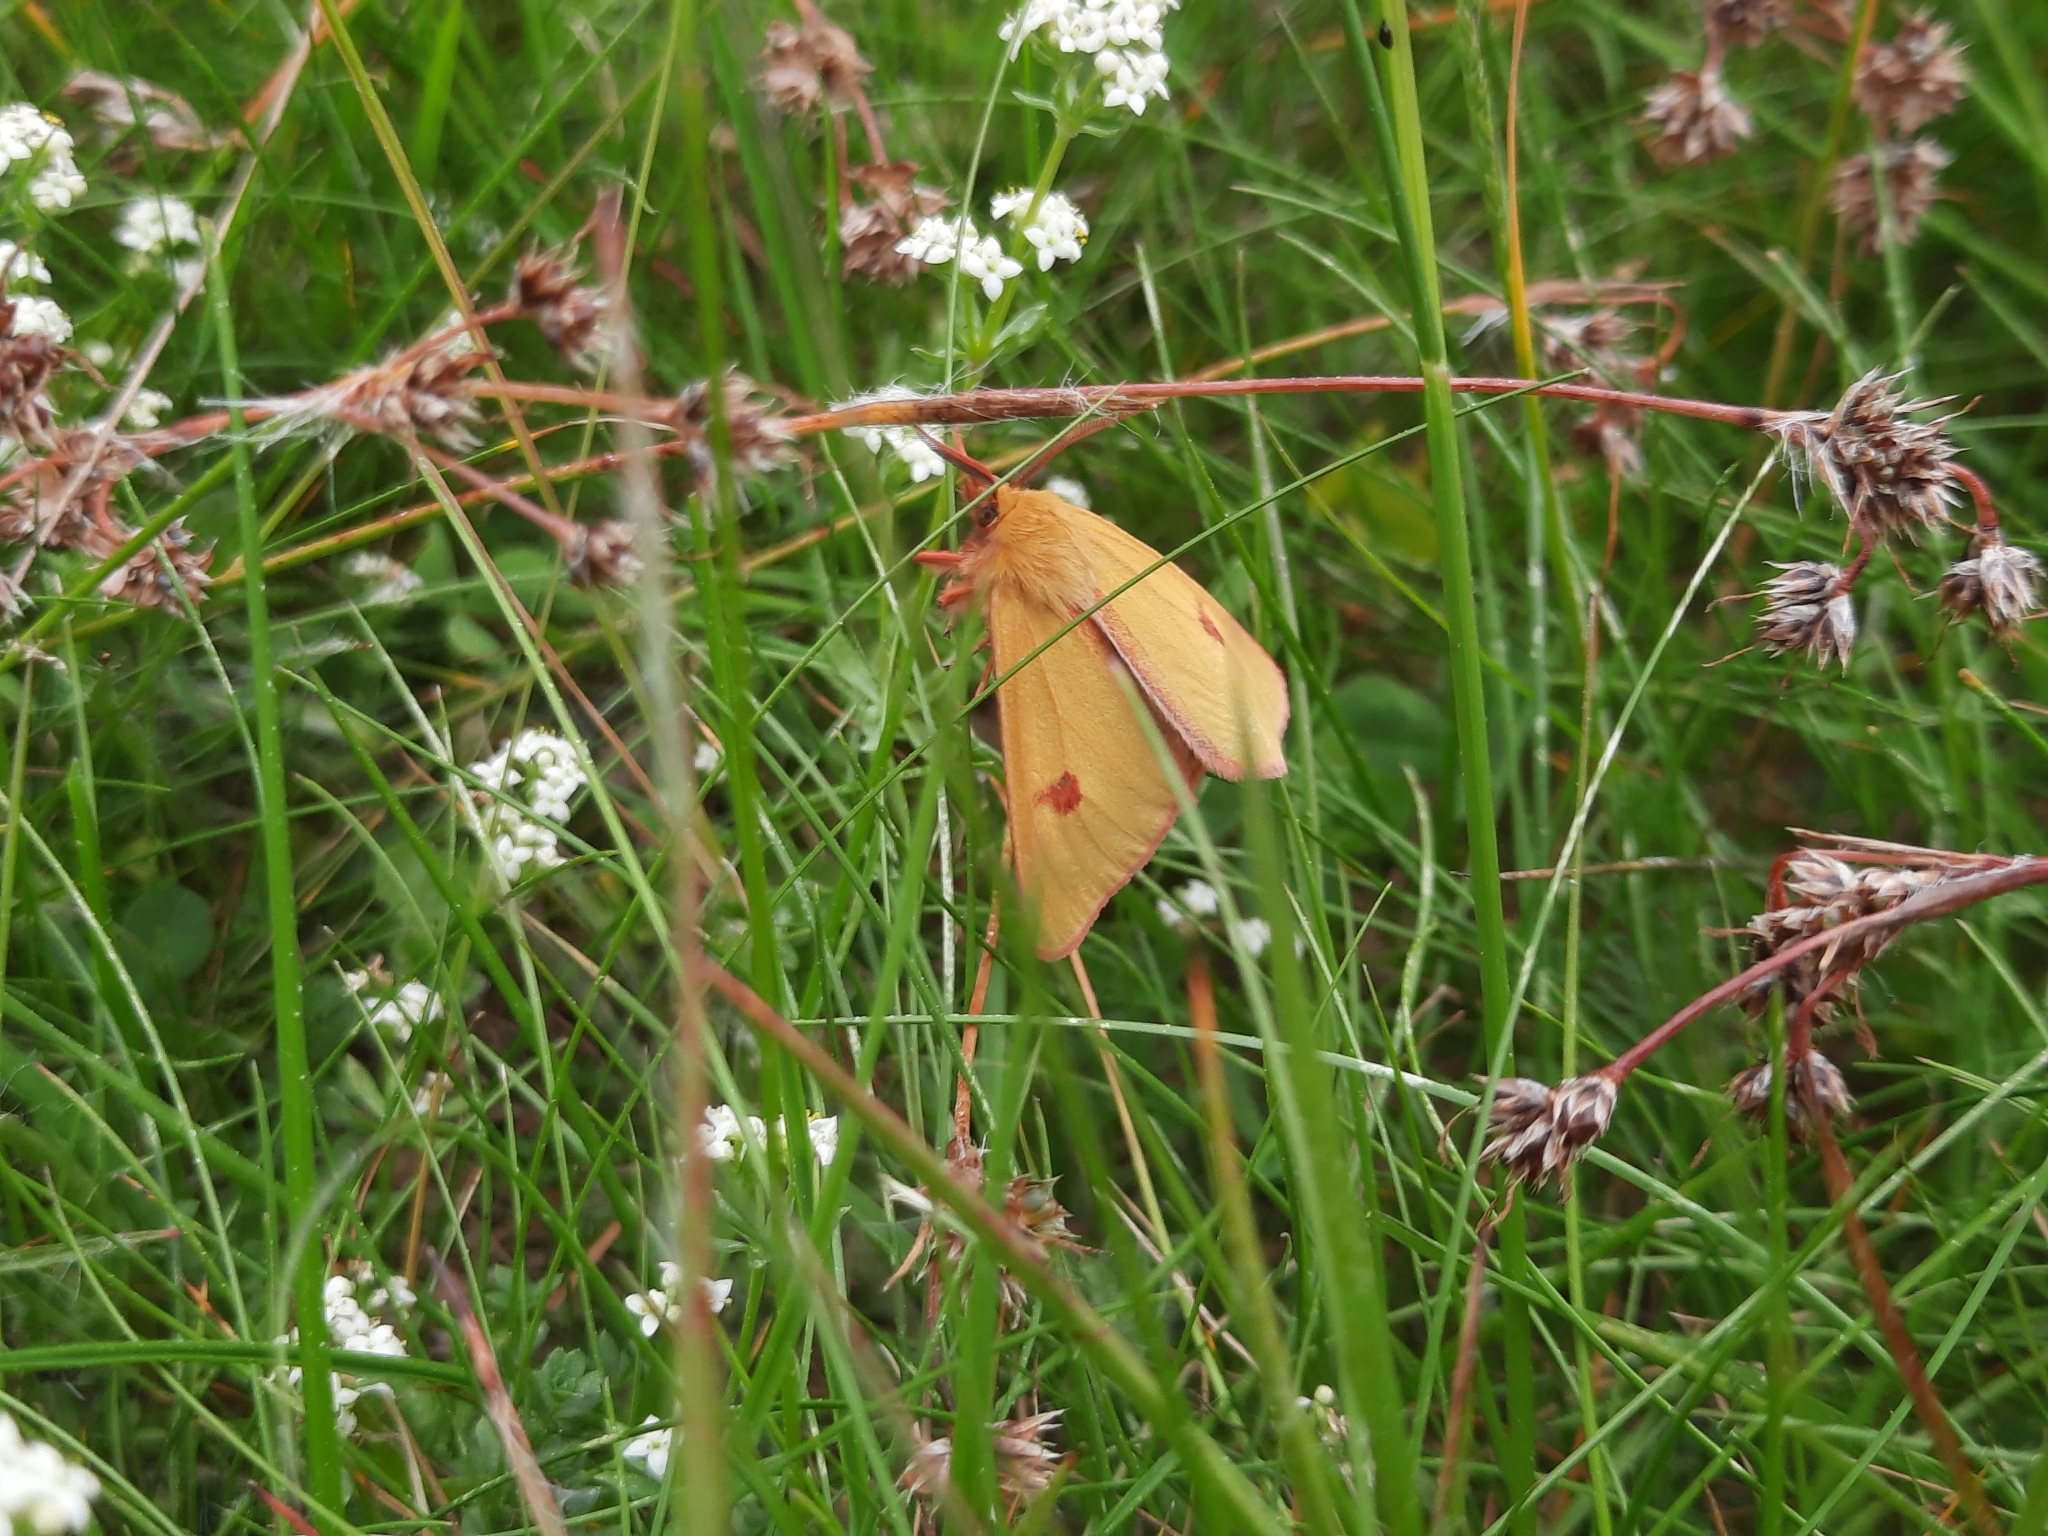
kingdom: Animalia
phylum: Arthropoda
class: Insecta
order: Lepidoptera
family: Erebidae
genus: Diacrisia
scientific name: Diacrisia sannio
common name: Clouded buff
